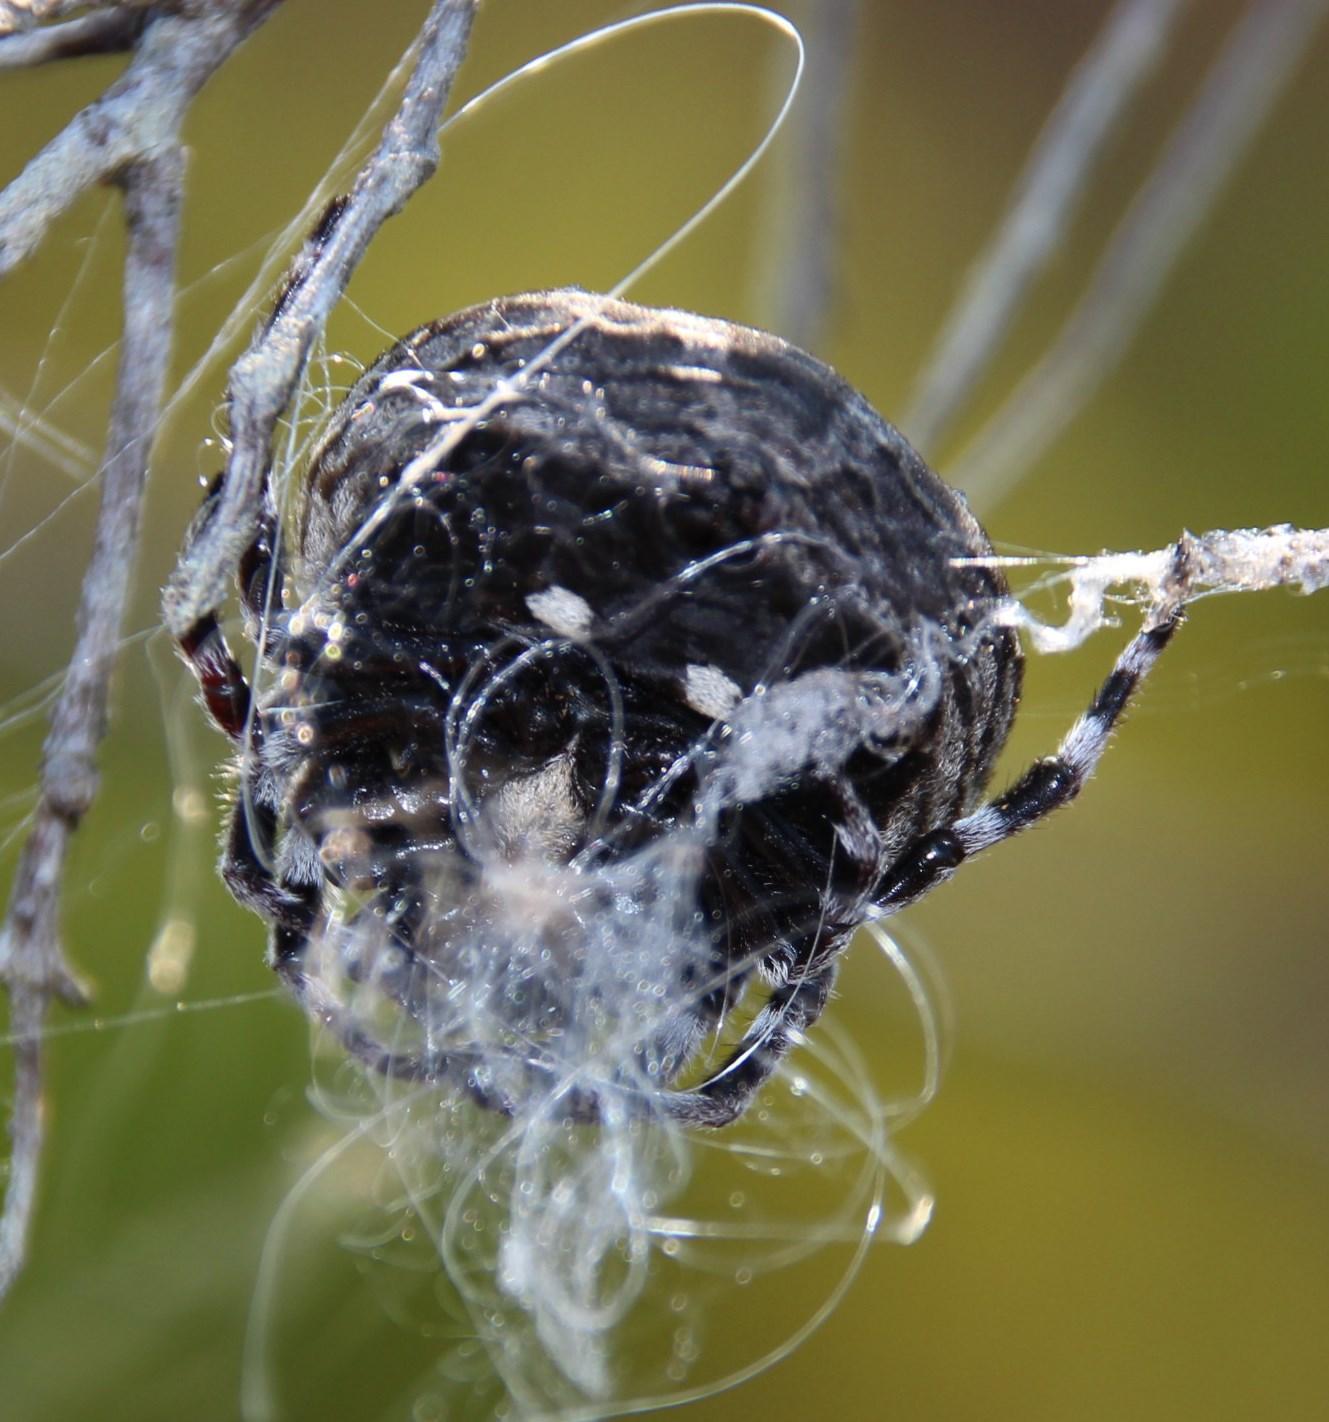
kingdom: Animalia
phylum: Arthropoda
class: Arachnida
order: Araneae
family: Araneidae
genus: Caerostris
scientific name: Caerostris sexcuspidata
